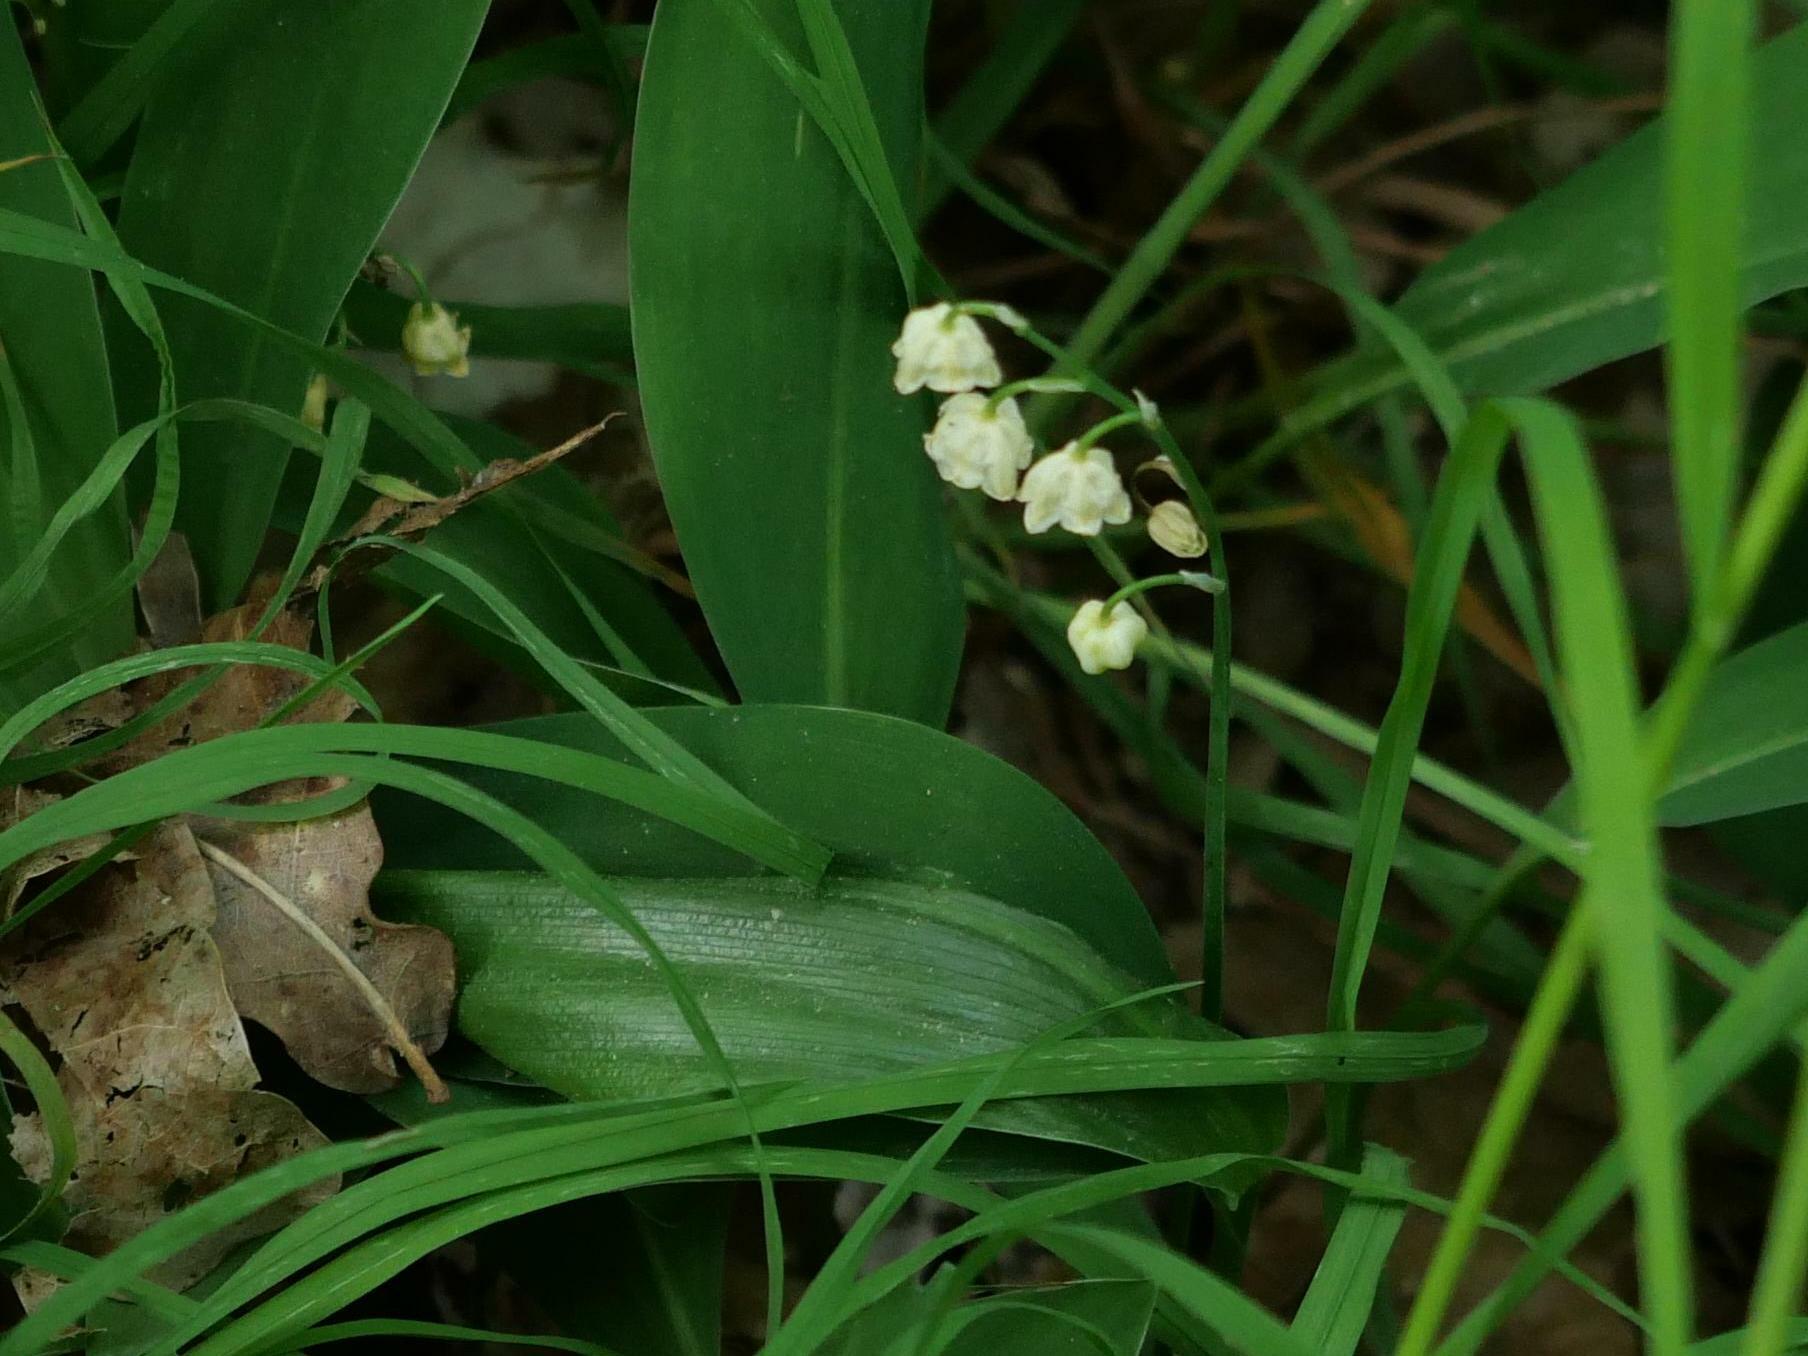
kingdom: Plantae
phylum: Tracheophyta
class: Liliopsida
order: Asparagales
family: Asparagaceae
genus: Convallaria
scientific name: Convallaria majalis
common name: Lily-of-the-valley
